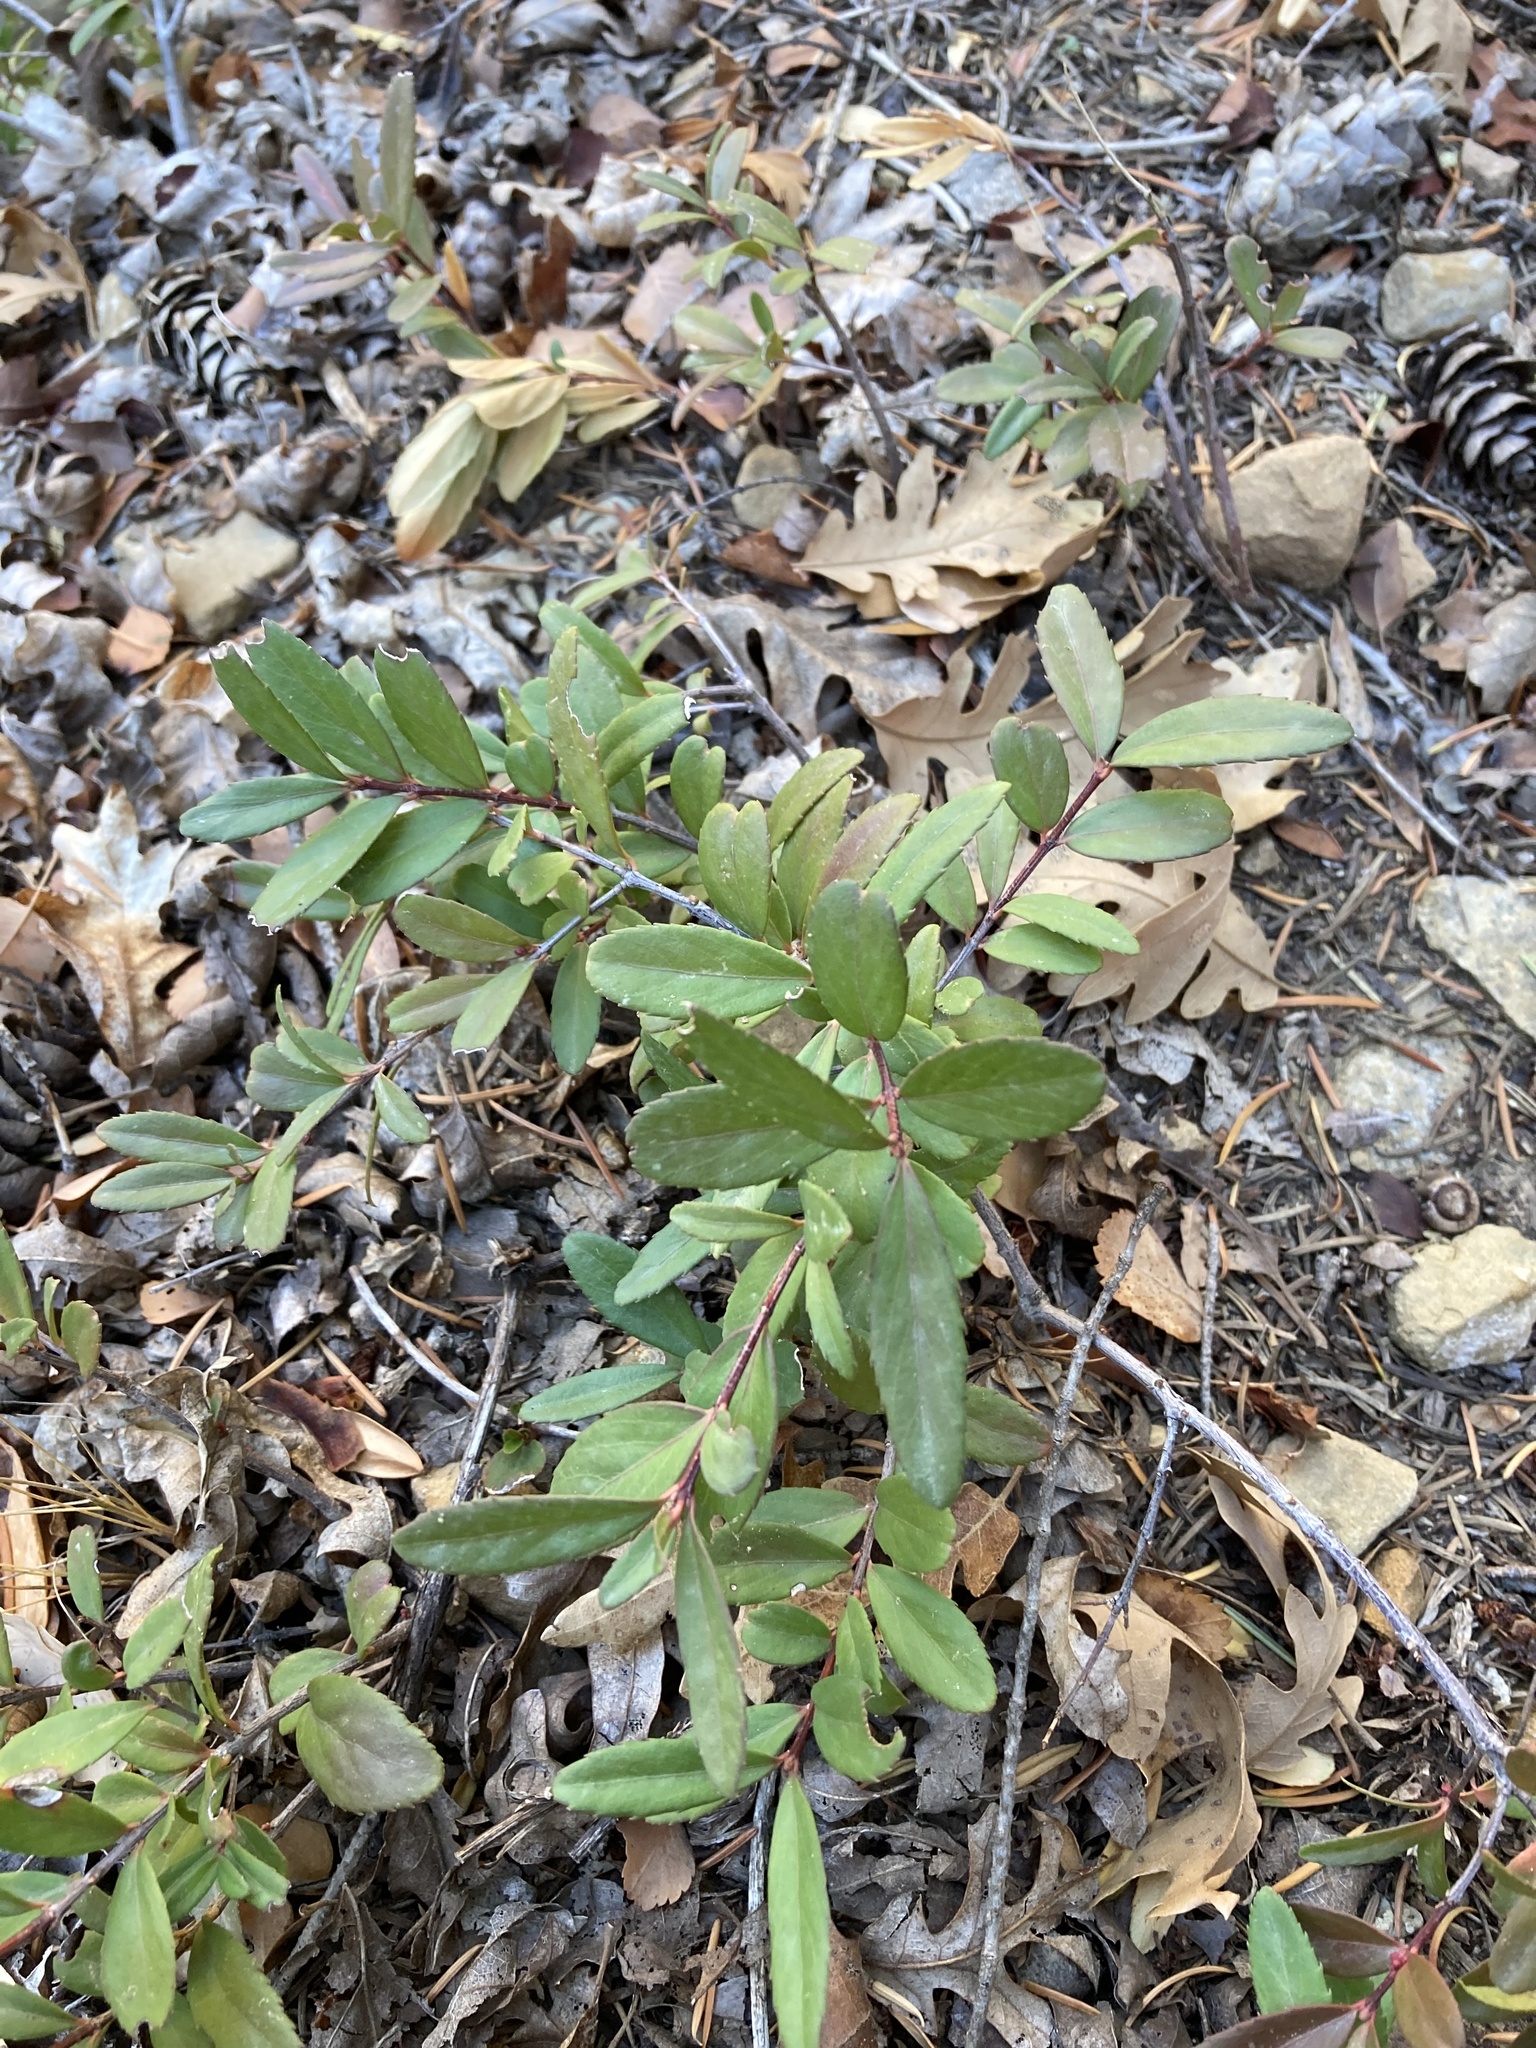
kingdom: Plantae
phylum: Tracheophyta
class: Magnoliopsida
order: Celastrales
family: Celastraceae
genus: Paxistima
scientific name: Paxistima myrsinites
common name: Mountain-lover
